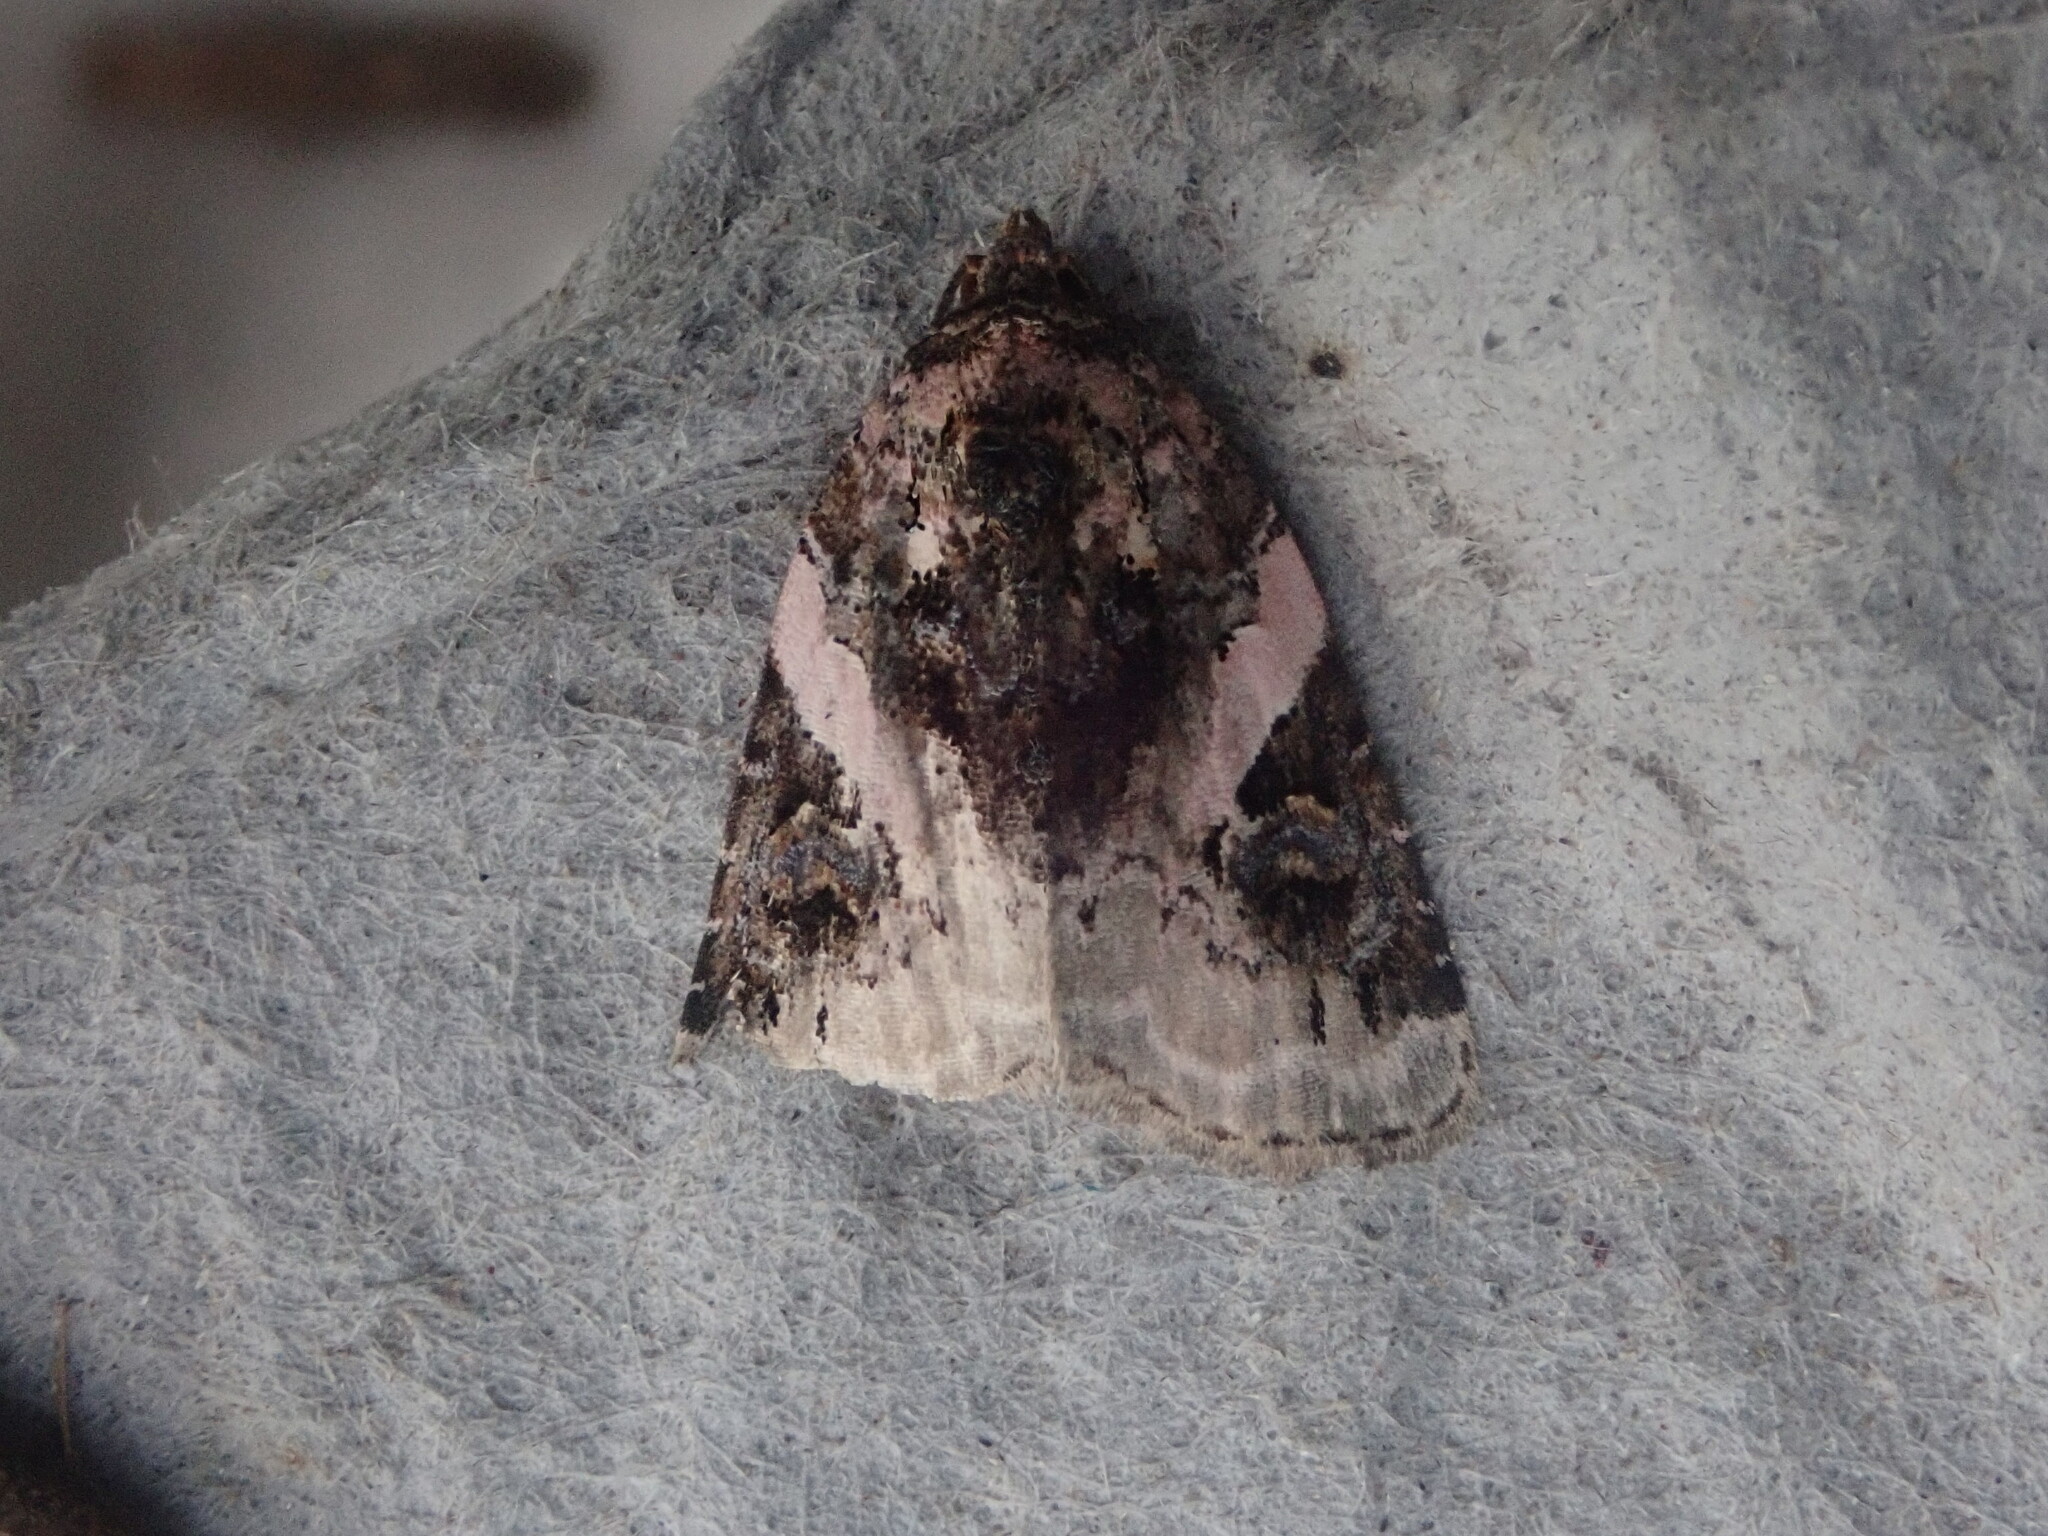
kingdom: Animalia
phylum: Arthropoda
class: Insecta
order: Lepidoptera
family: Noctuidae
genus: Pseudeustrotia
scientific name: Pseudeustrotia carneola
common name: Pink-barred lithacodia moth
